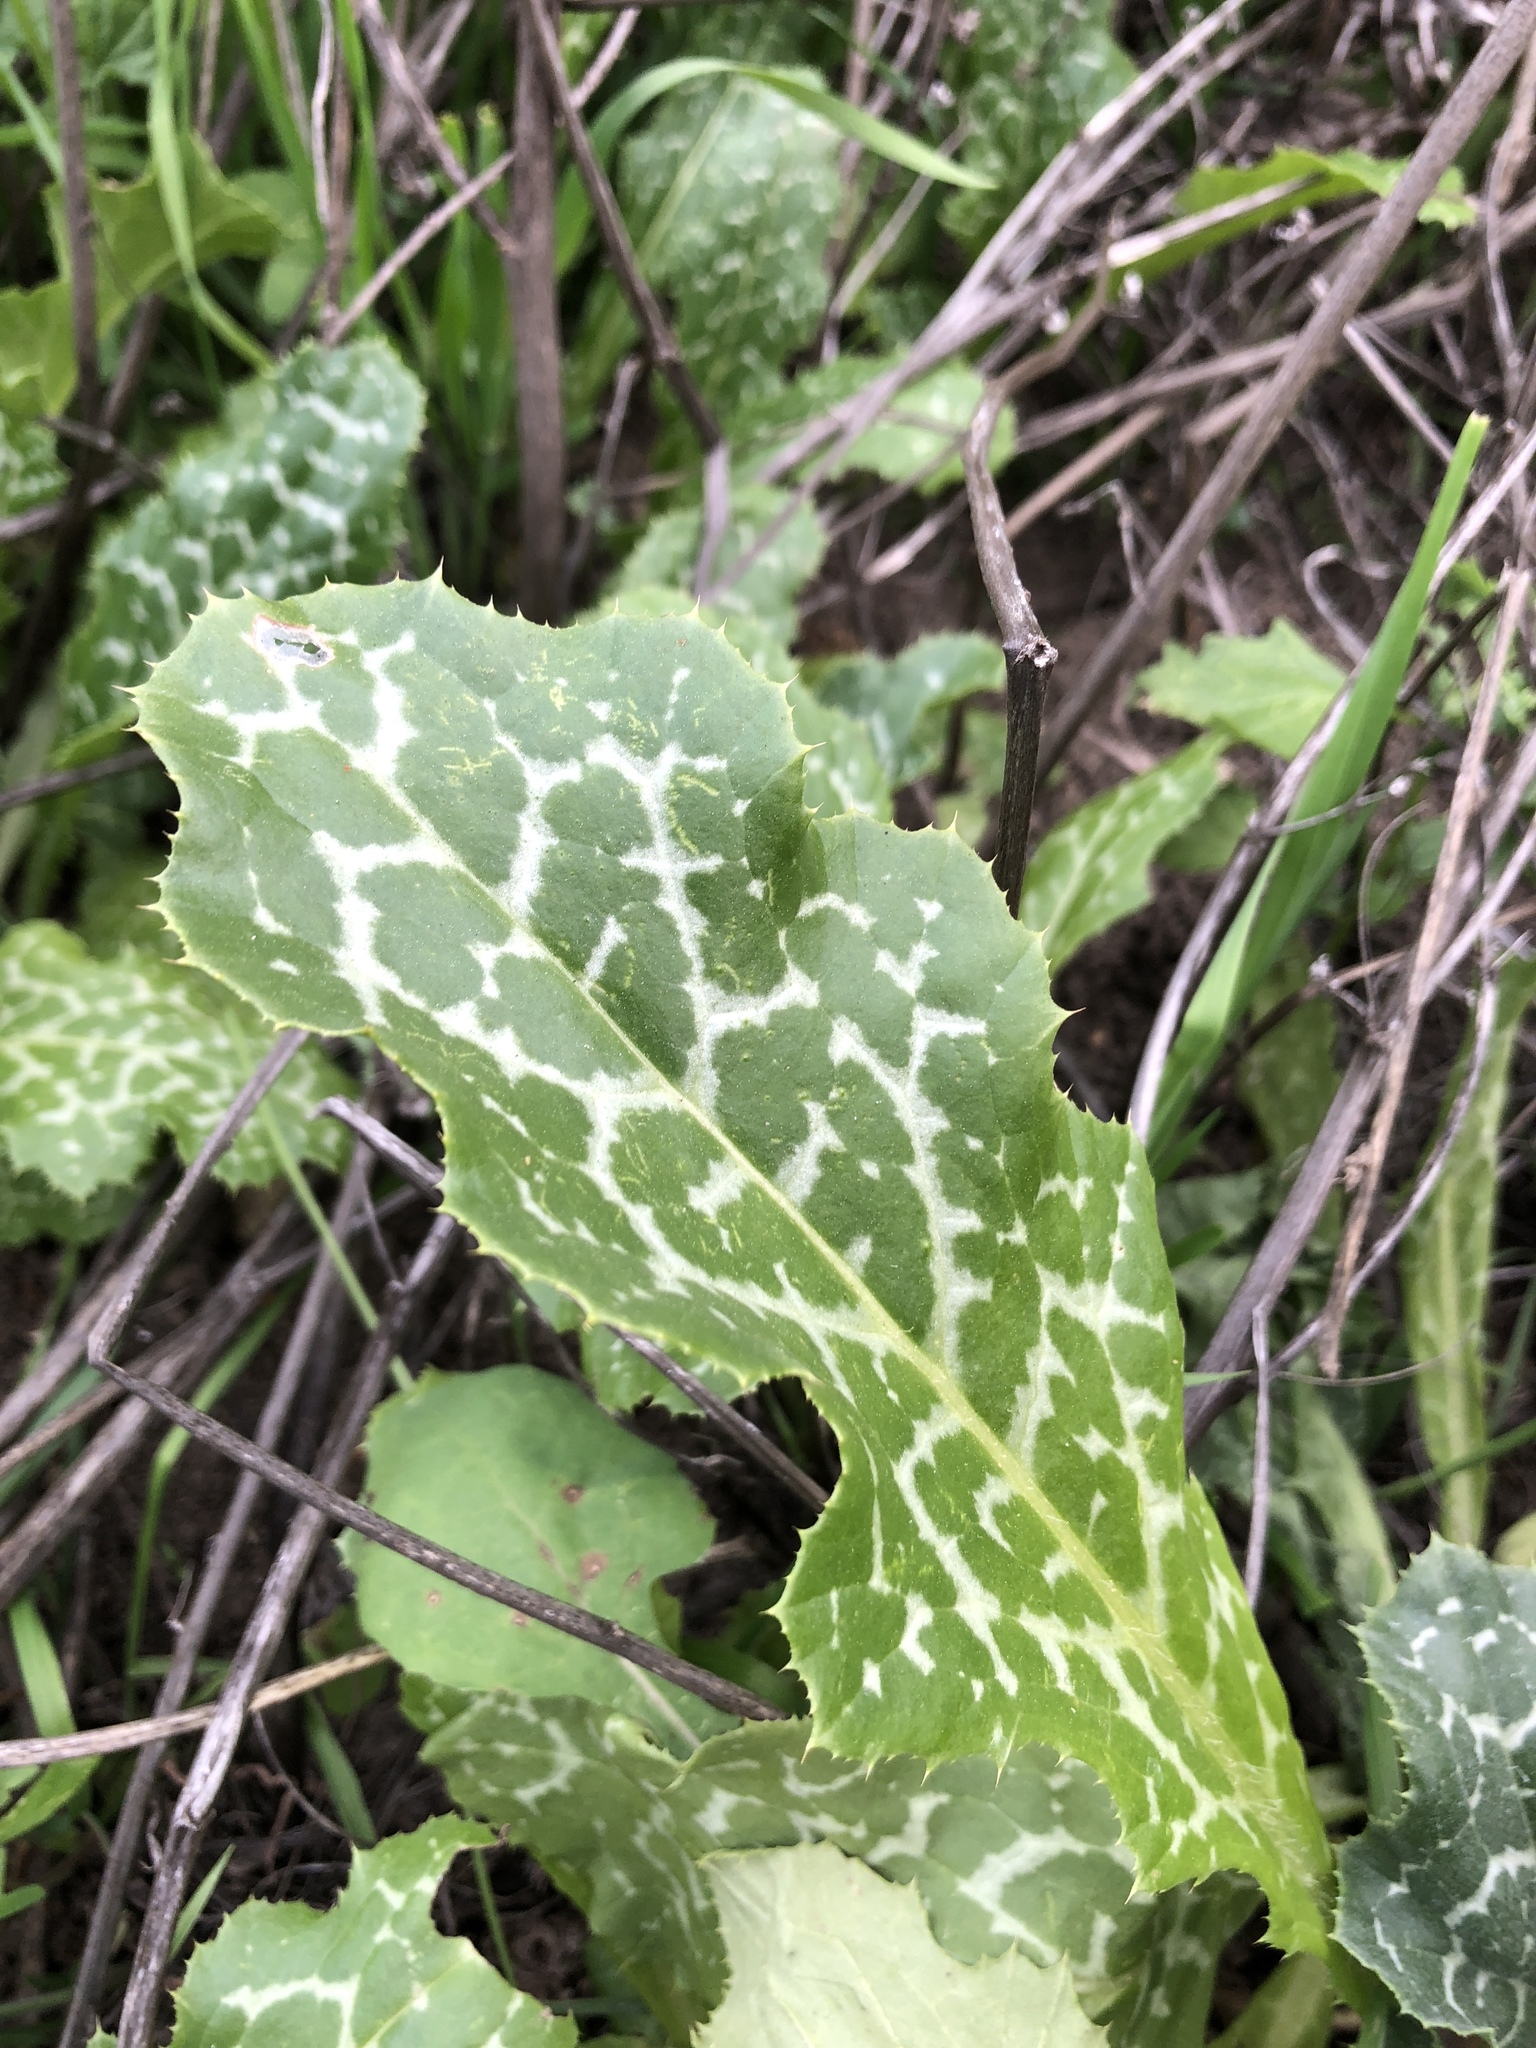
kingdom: Plantae
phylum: Tracheophyta
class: Magnoliopsida
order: Asterales
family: Asteraceae
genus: Silybum
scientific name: Silybum marianum
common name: Milk thistle
